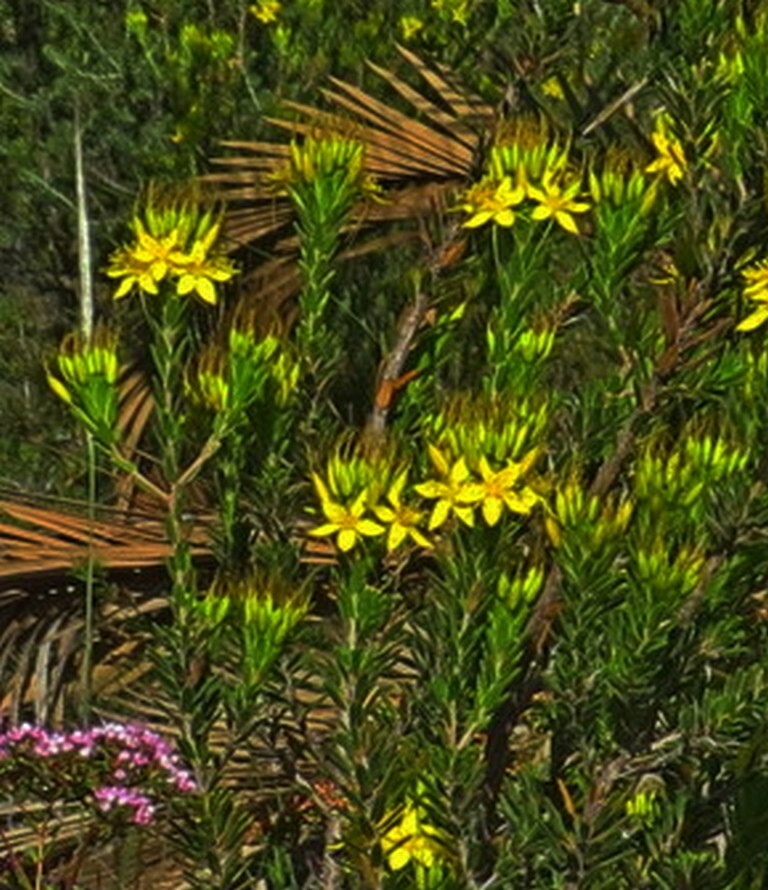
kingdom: Plantae
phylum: Tracheophyta
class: Magnoliopsida
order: Myrtales
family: Myrtaceae
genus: Calytrix
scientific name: Calytrix aurea
